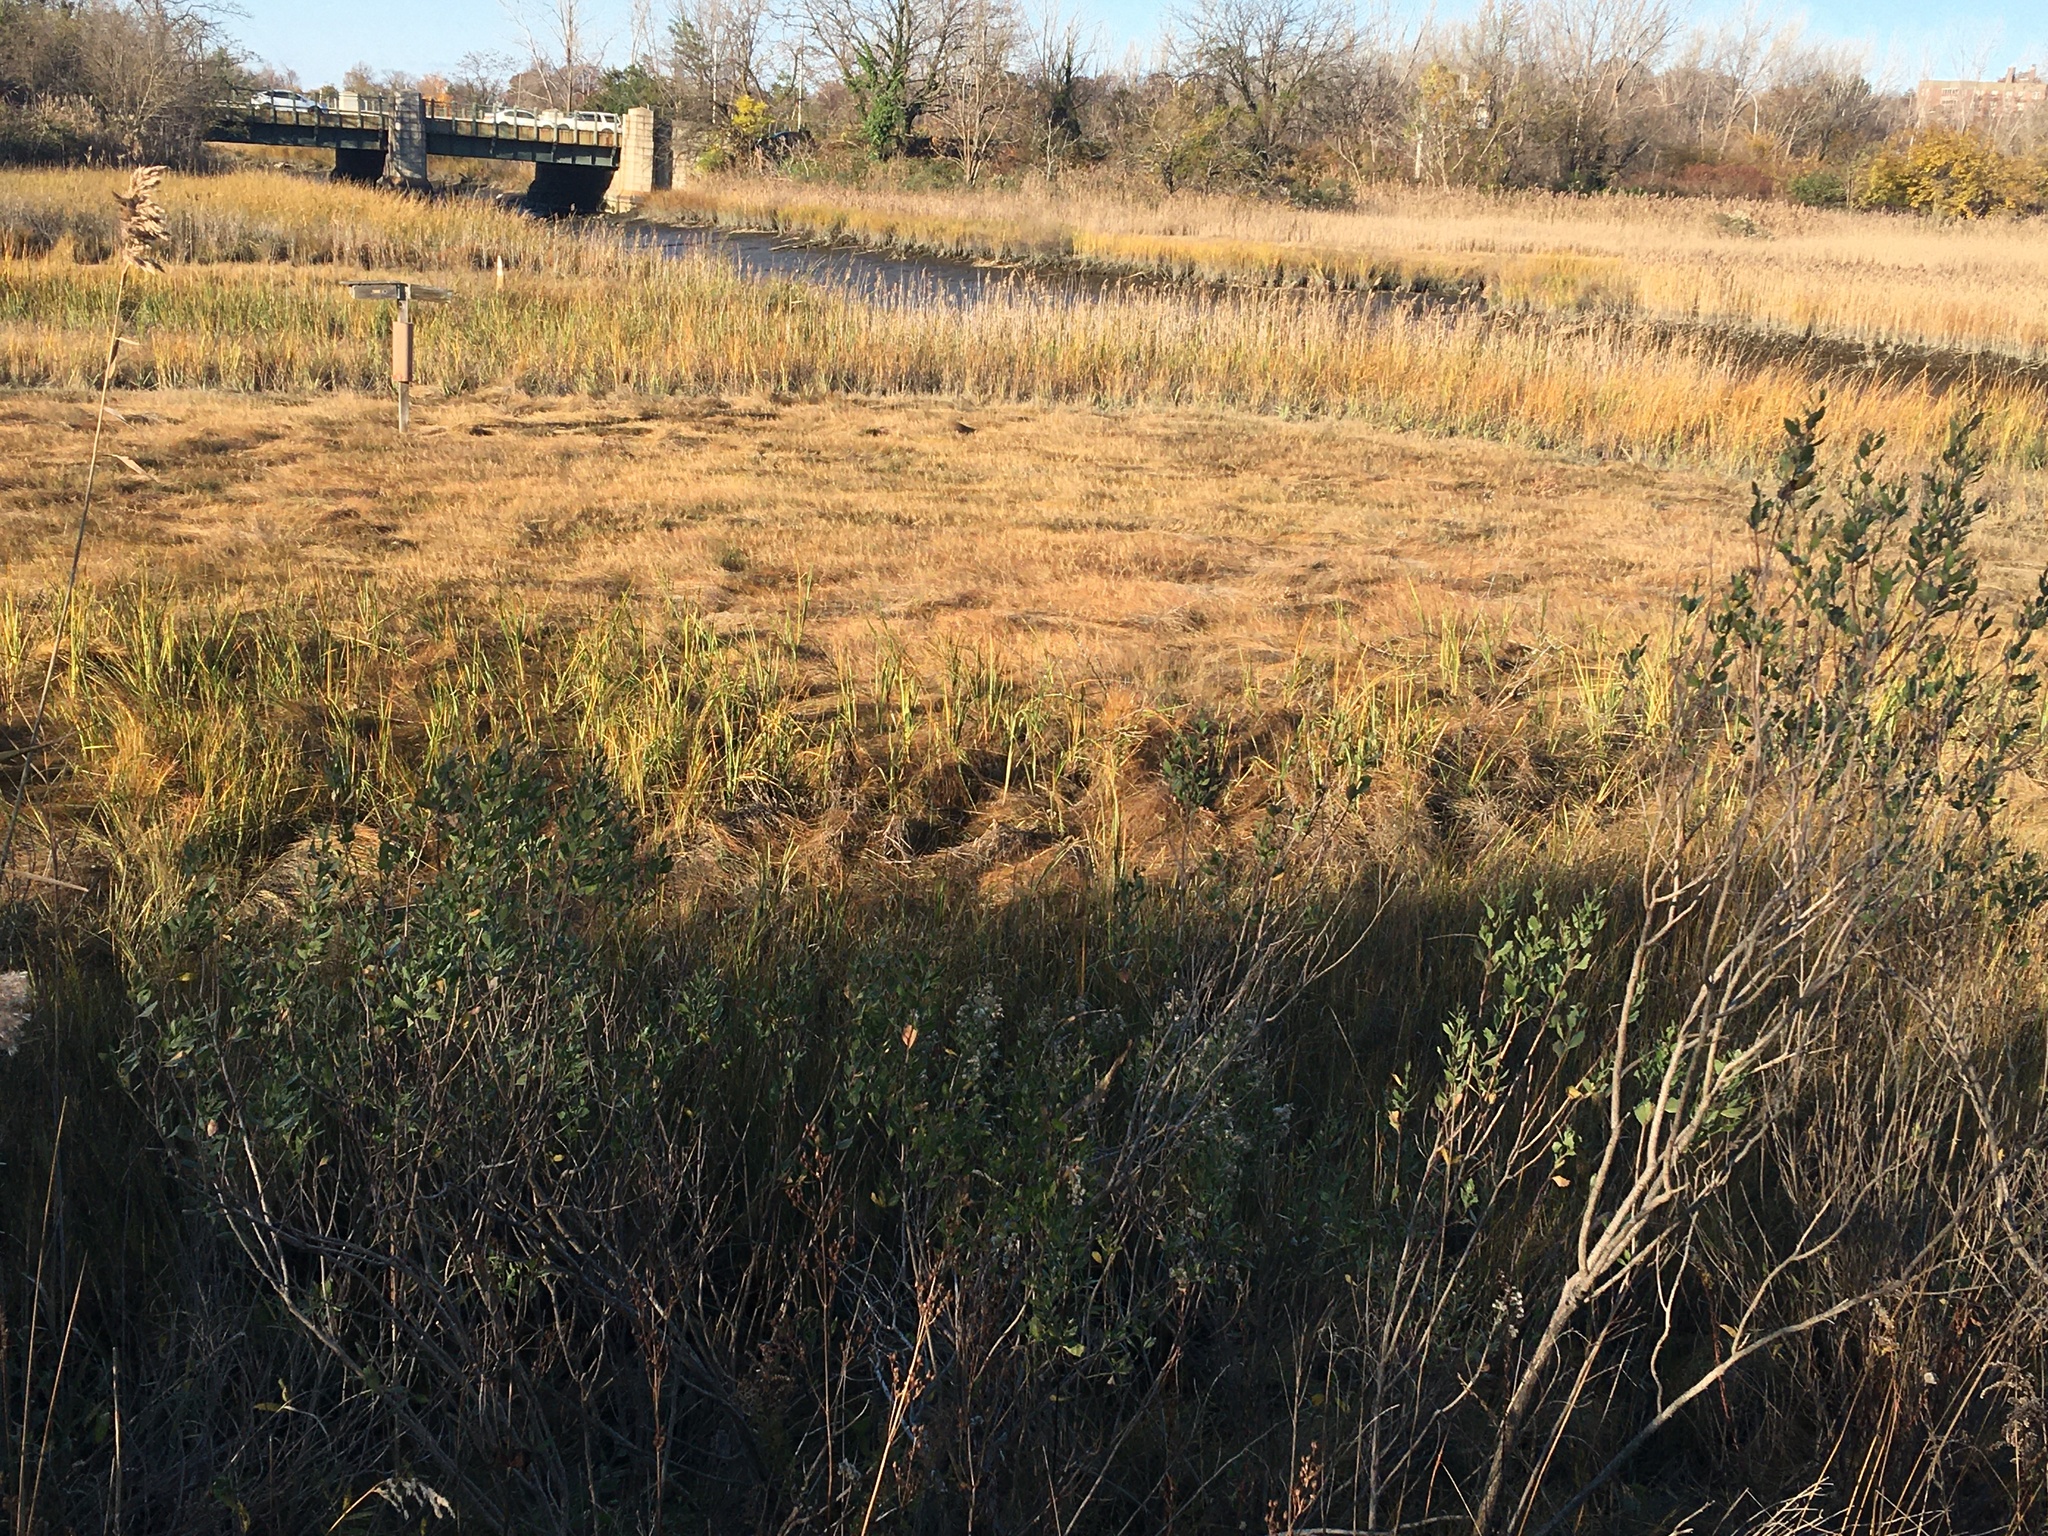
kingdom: Plantae
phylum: Tracheophyta
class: Magnoliopsida
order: Asterales
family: Asteraceae
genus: Baccharis
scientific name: Baccharis halimifolia
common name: Eastern baccharis
